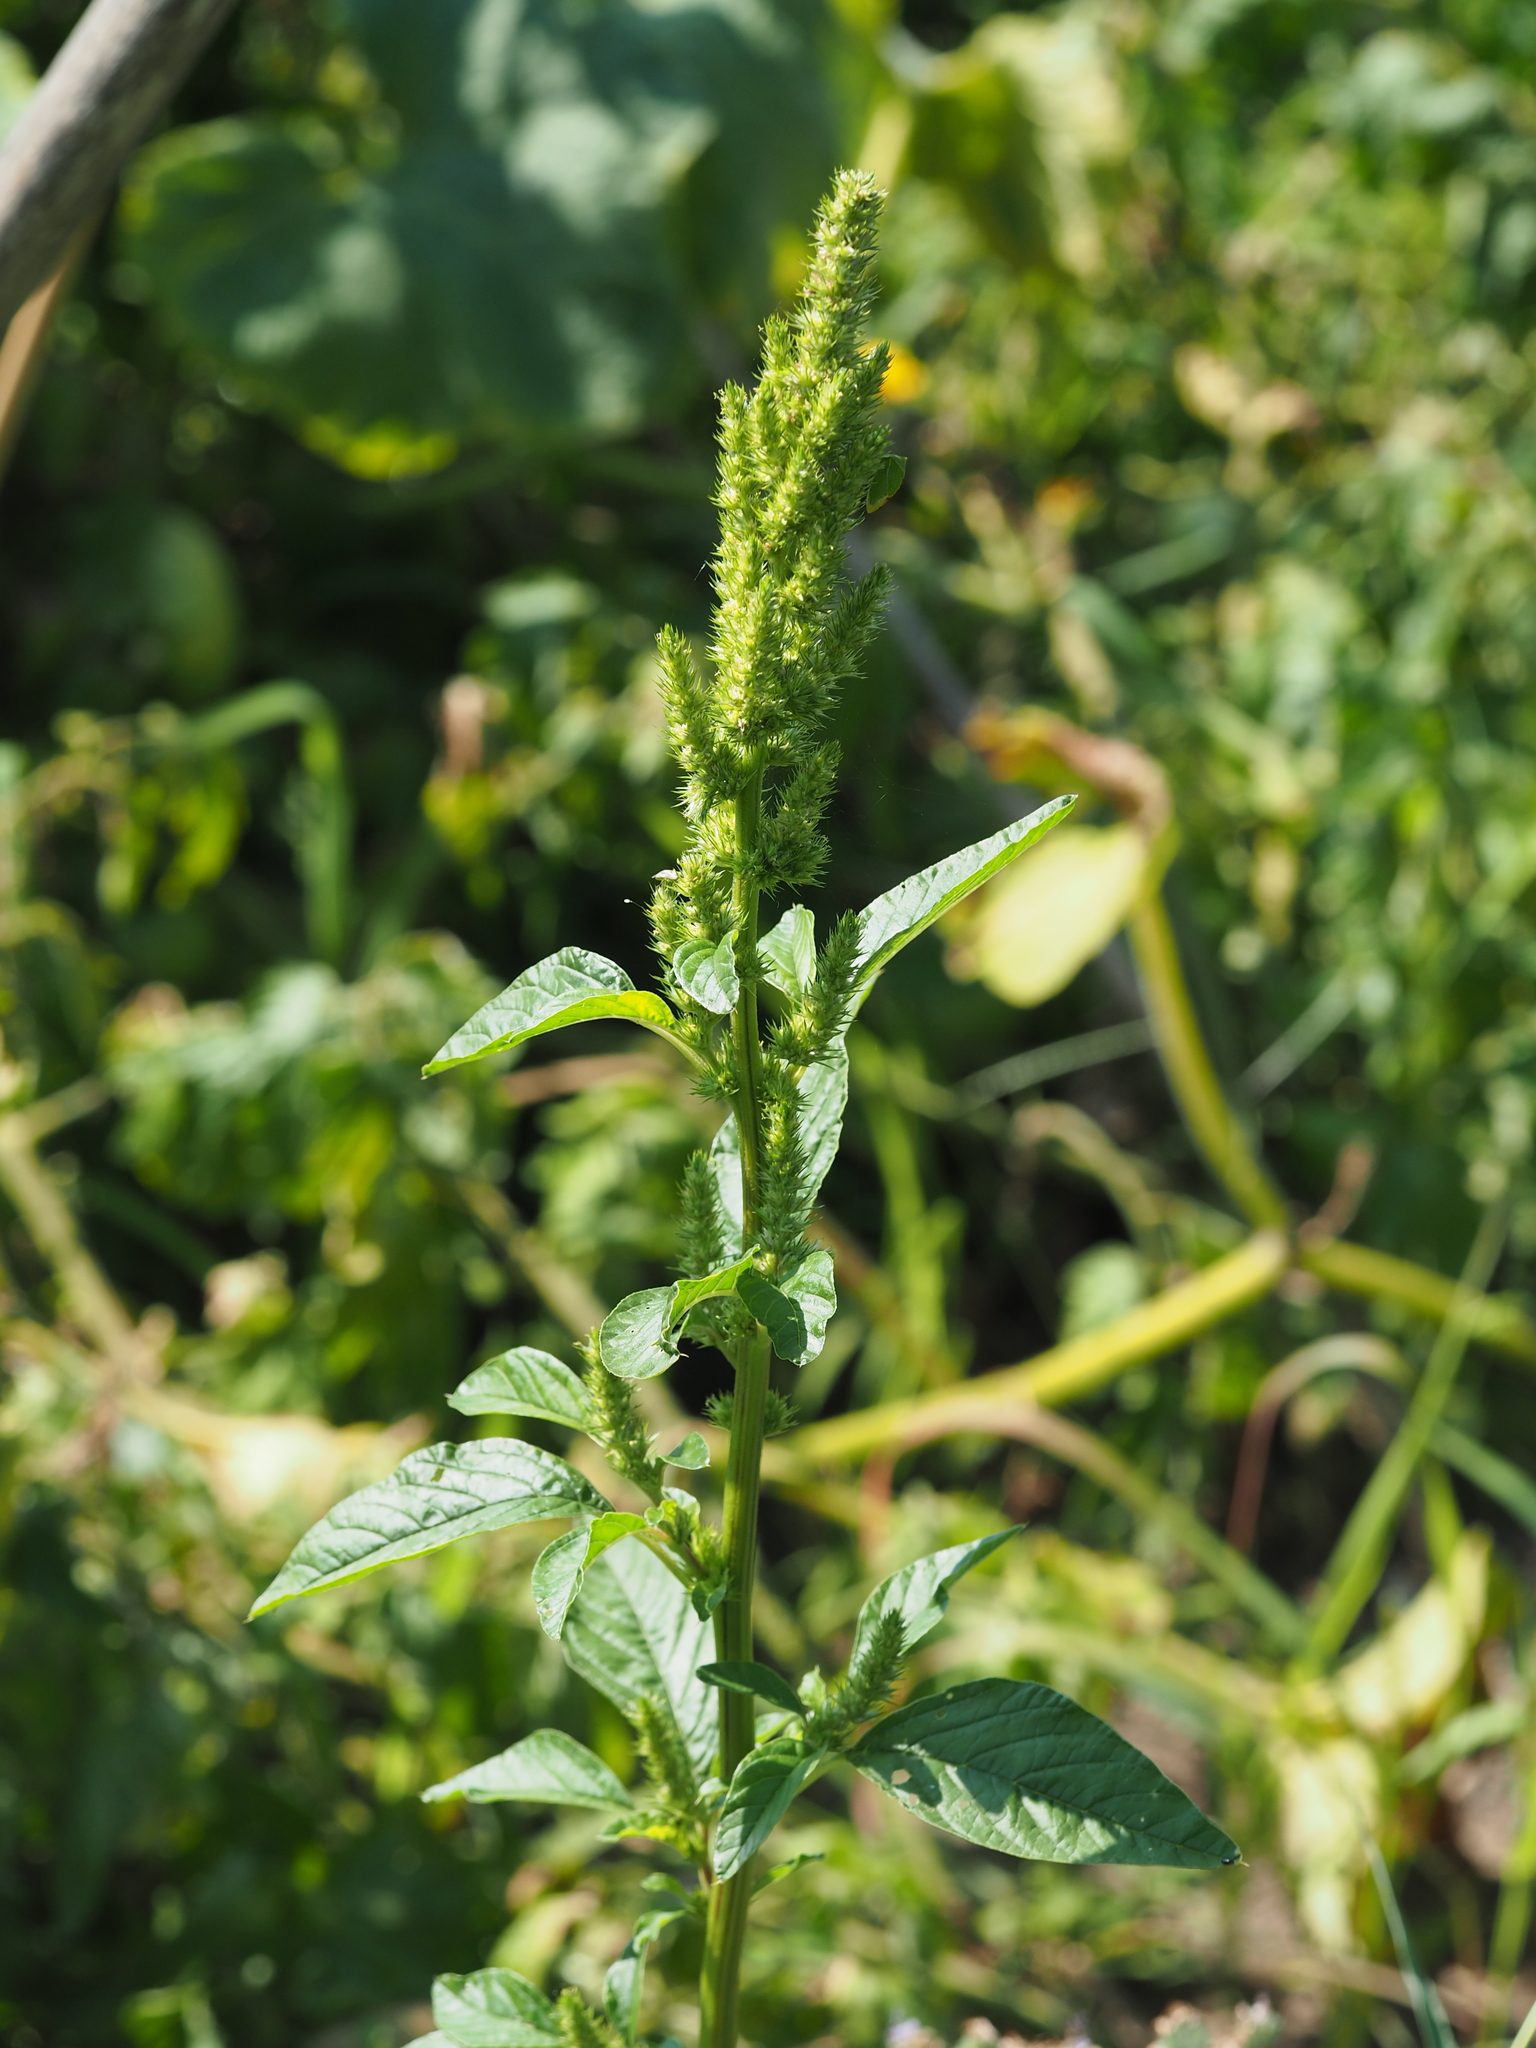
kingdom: Plantae
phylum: Tracheophyta
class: Magnoliopsida
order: Caryophyllales
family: Amaranthaceae
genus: Amaranthus
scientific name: Amaranthus powellii
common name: Powell's amaranth
